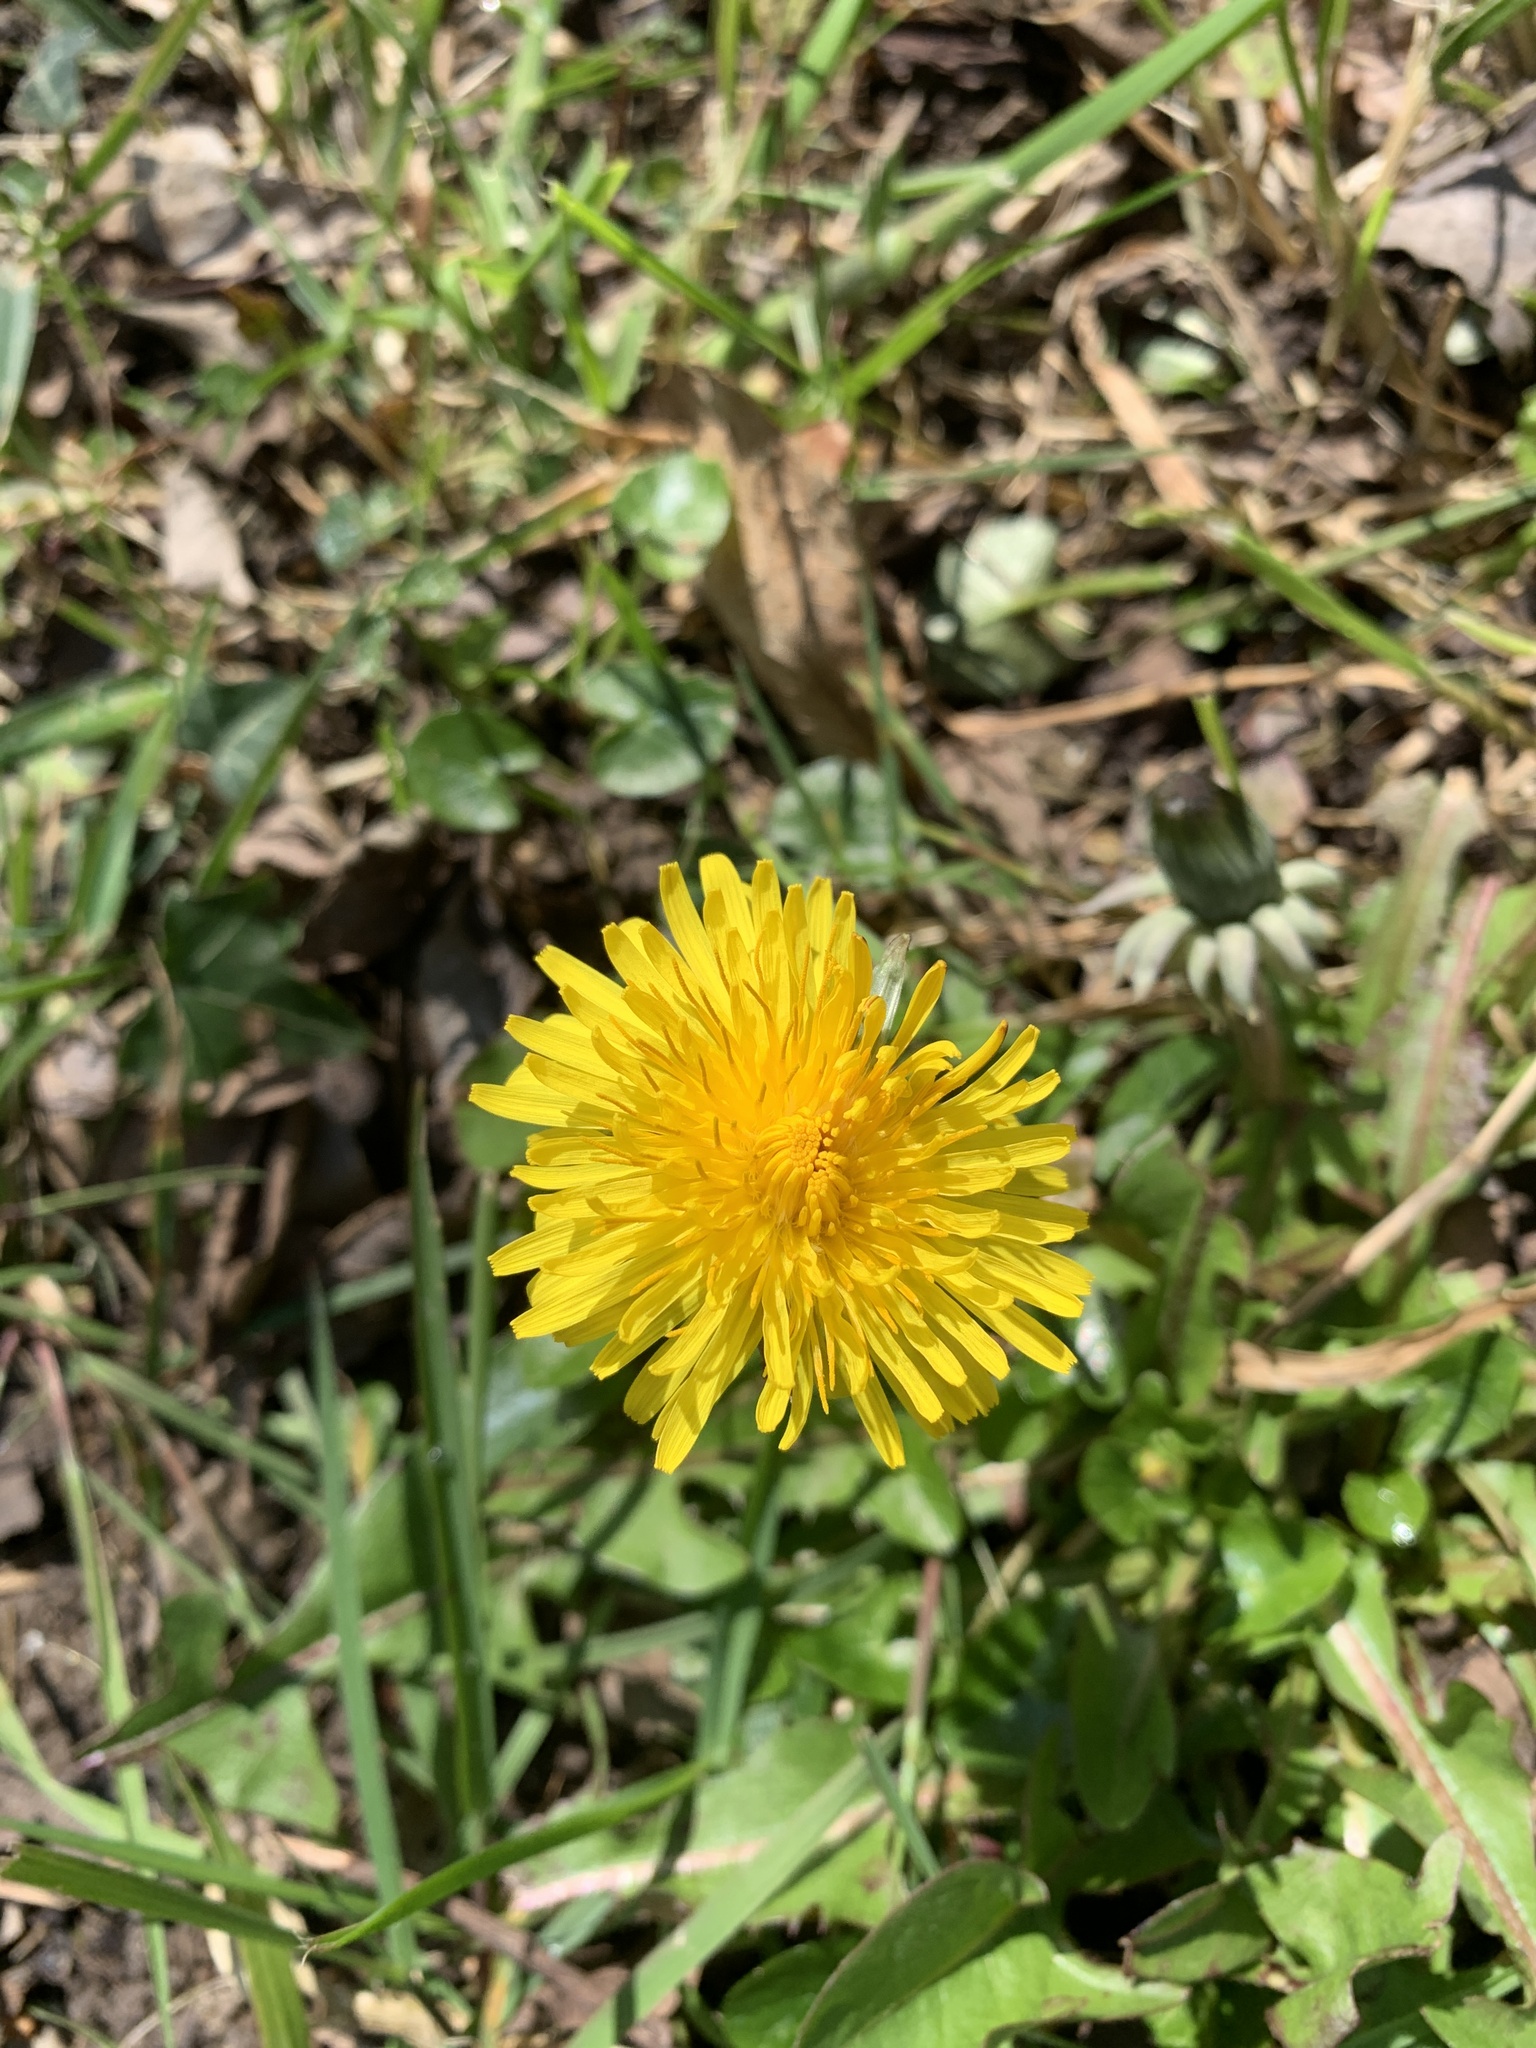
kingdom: Plantae
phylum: Tracheophyta
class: Magnoliopsida
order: Asterales
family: Asteraceae
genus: Taraxacum
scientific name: Taraxacum officinale
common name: Common dandelion
